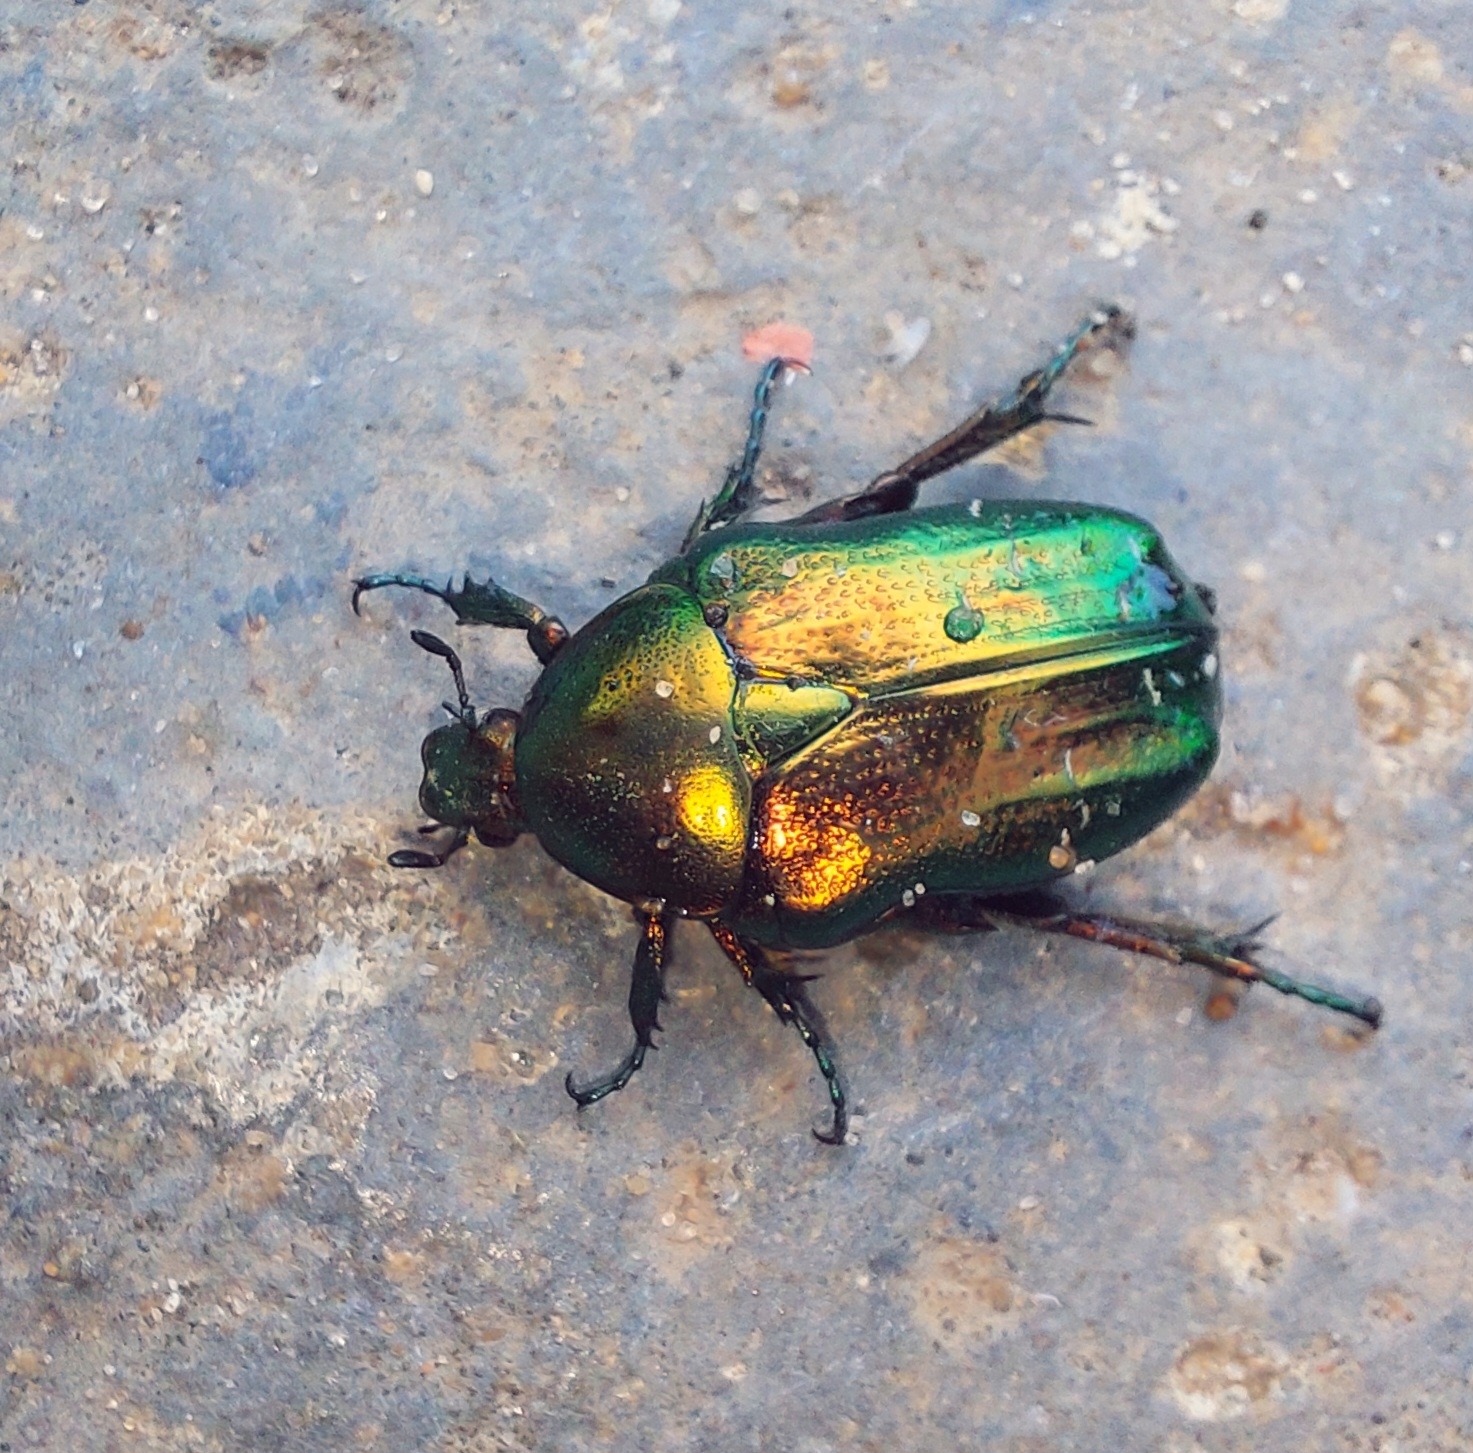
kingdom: Animalia
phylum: Arthropoda
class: Insecta
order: Coleoptera
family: Scarabaeidae
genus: Cetonia
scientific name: Cetonia aurata
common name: Rose chafer
